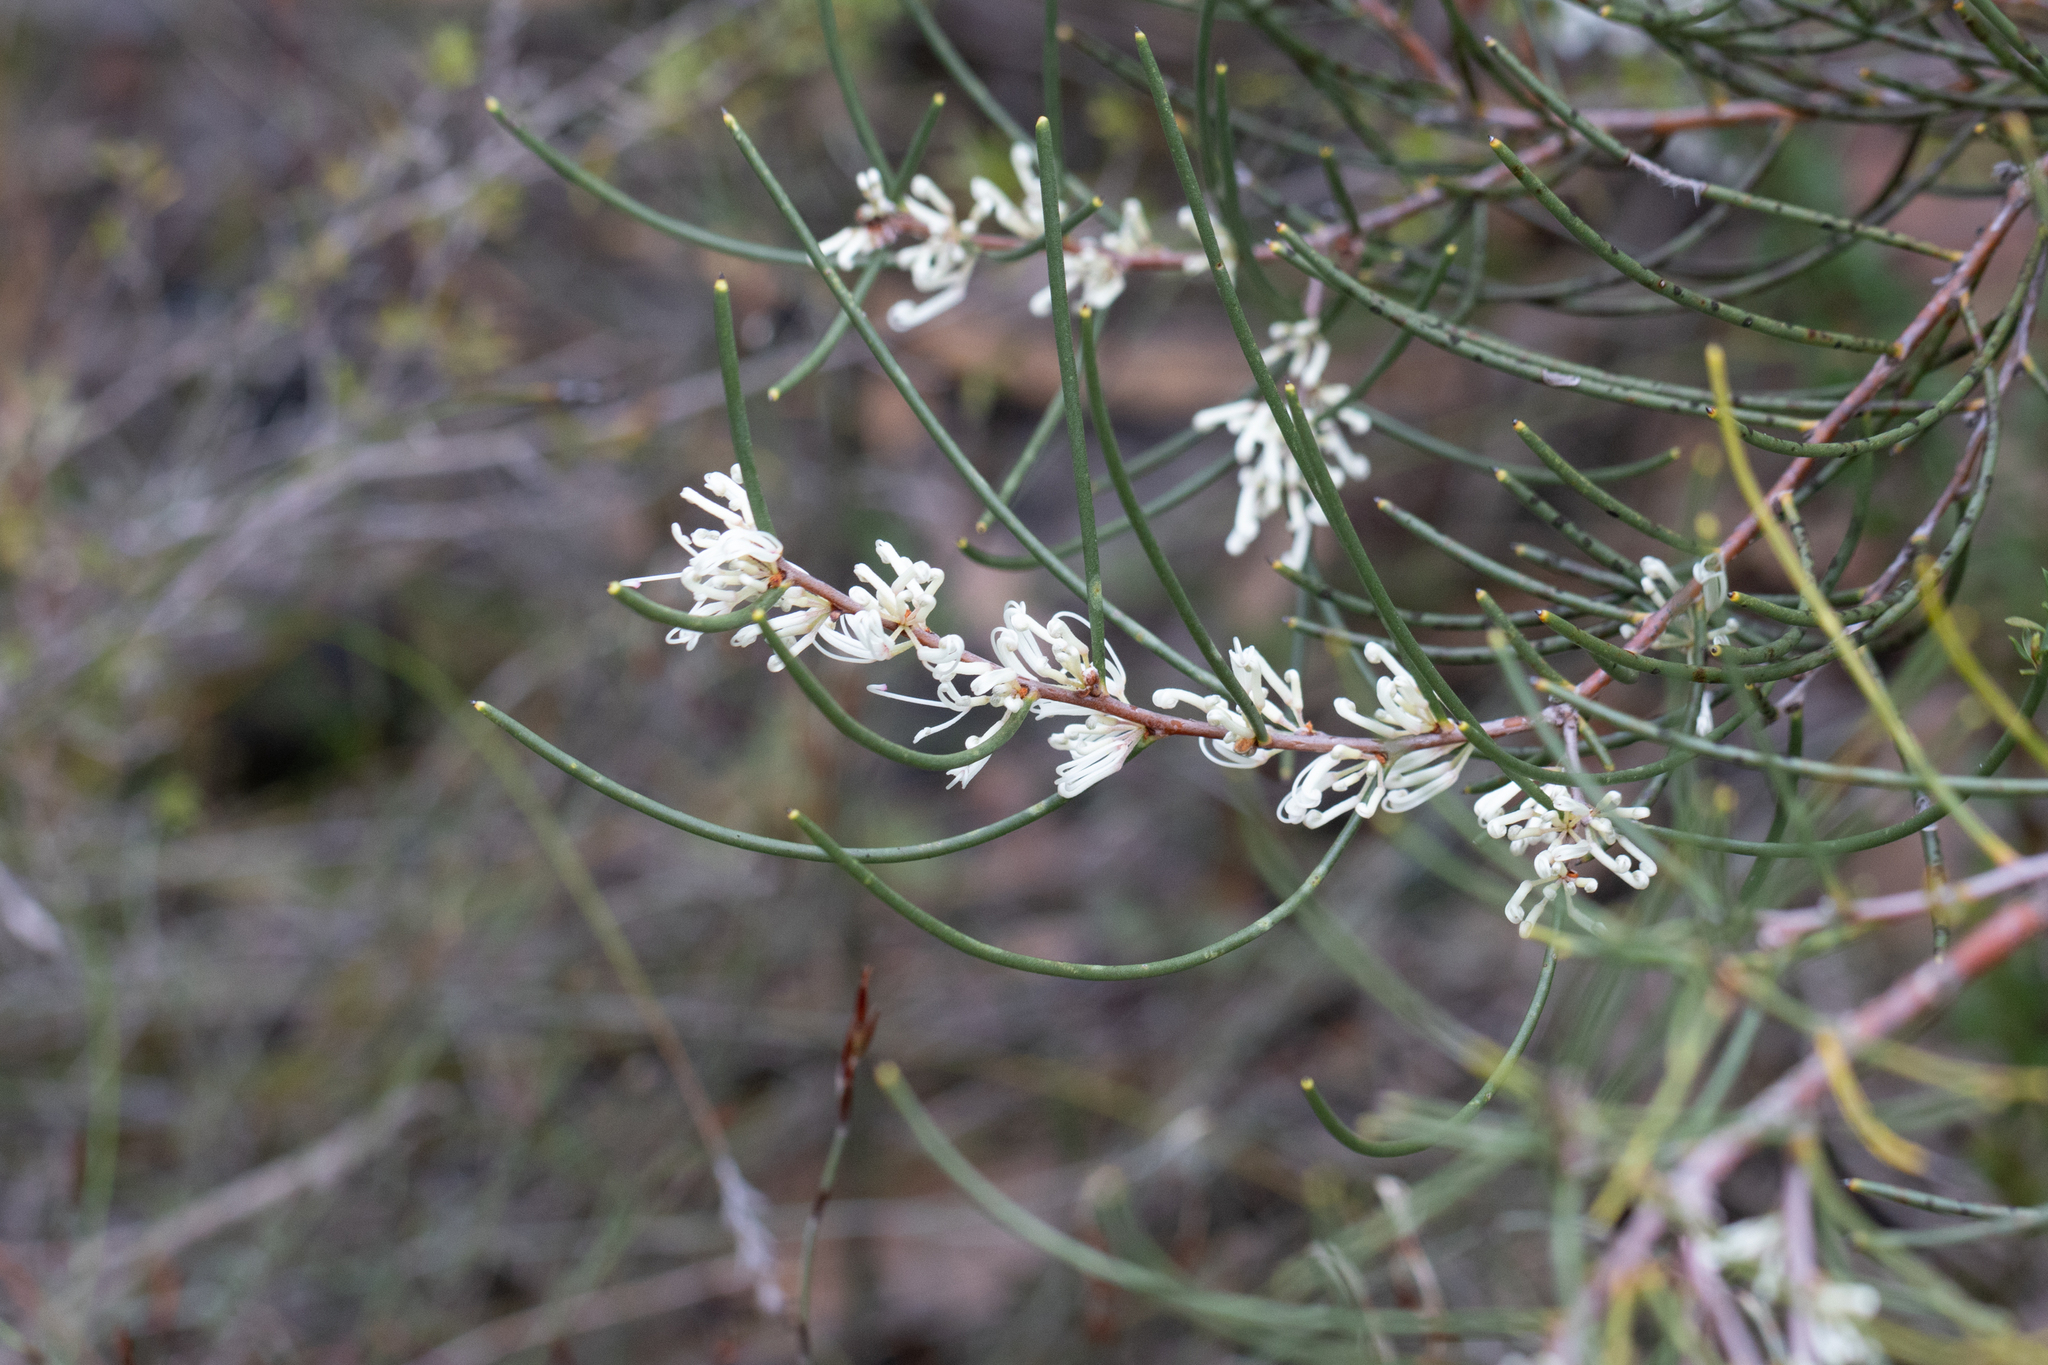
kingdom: Plantae
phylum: Tracheophyta
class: Magnoliopsida
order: Proteales
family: Proteaceae
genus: Hakea
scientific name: Hakea rostrata
